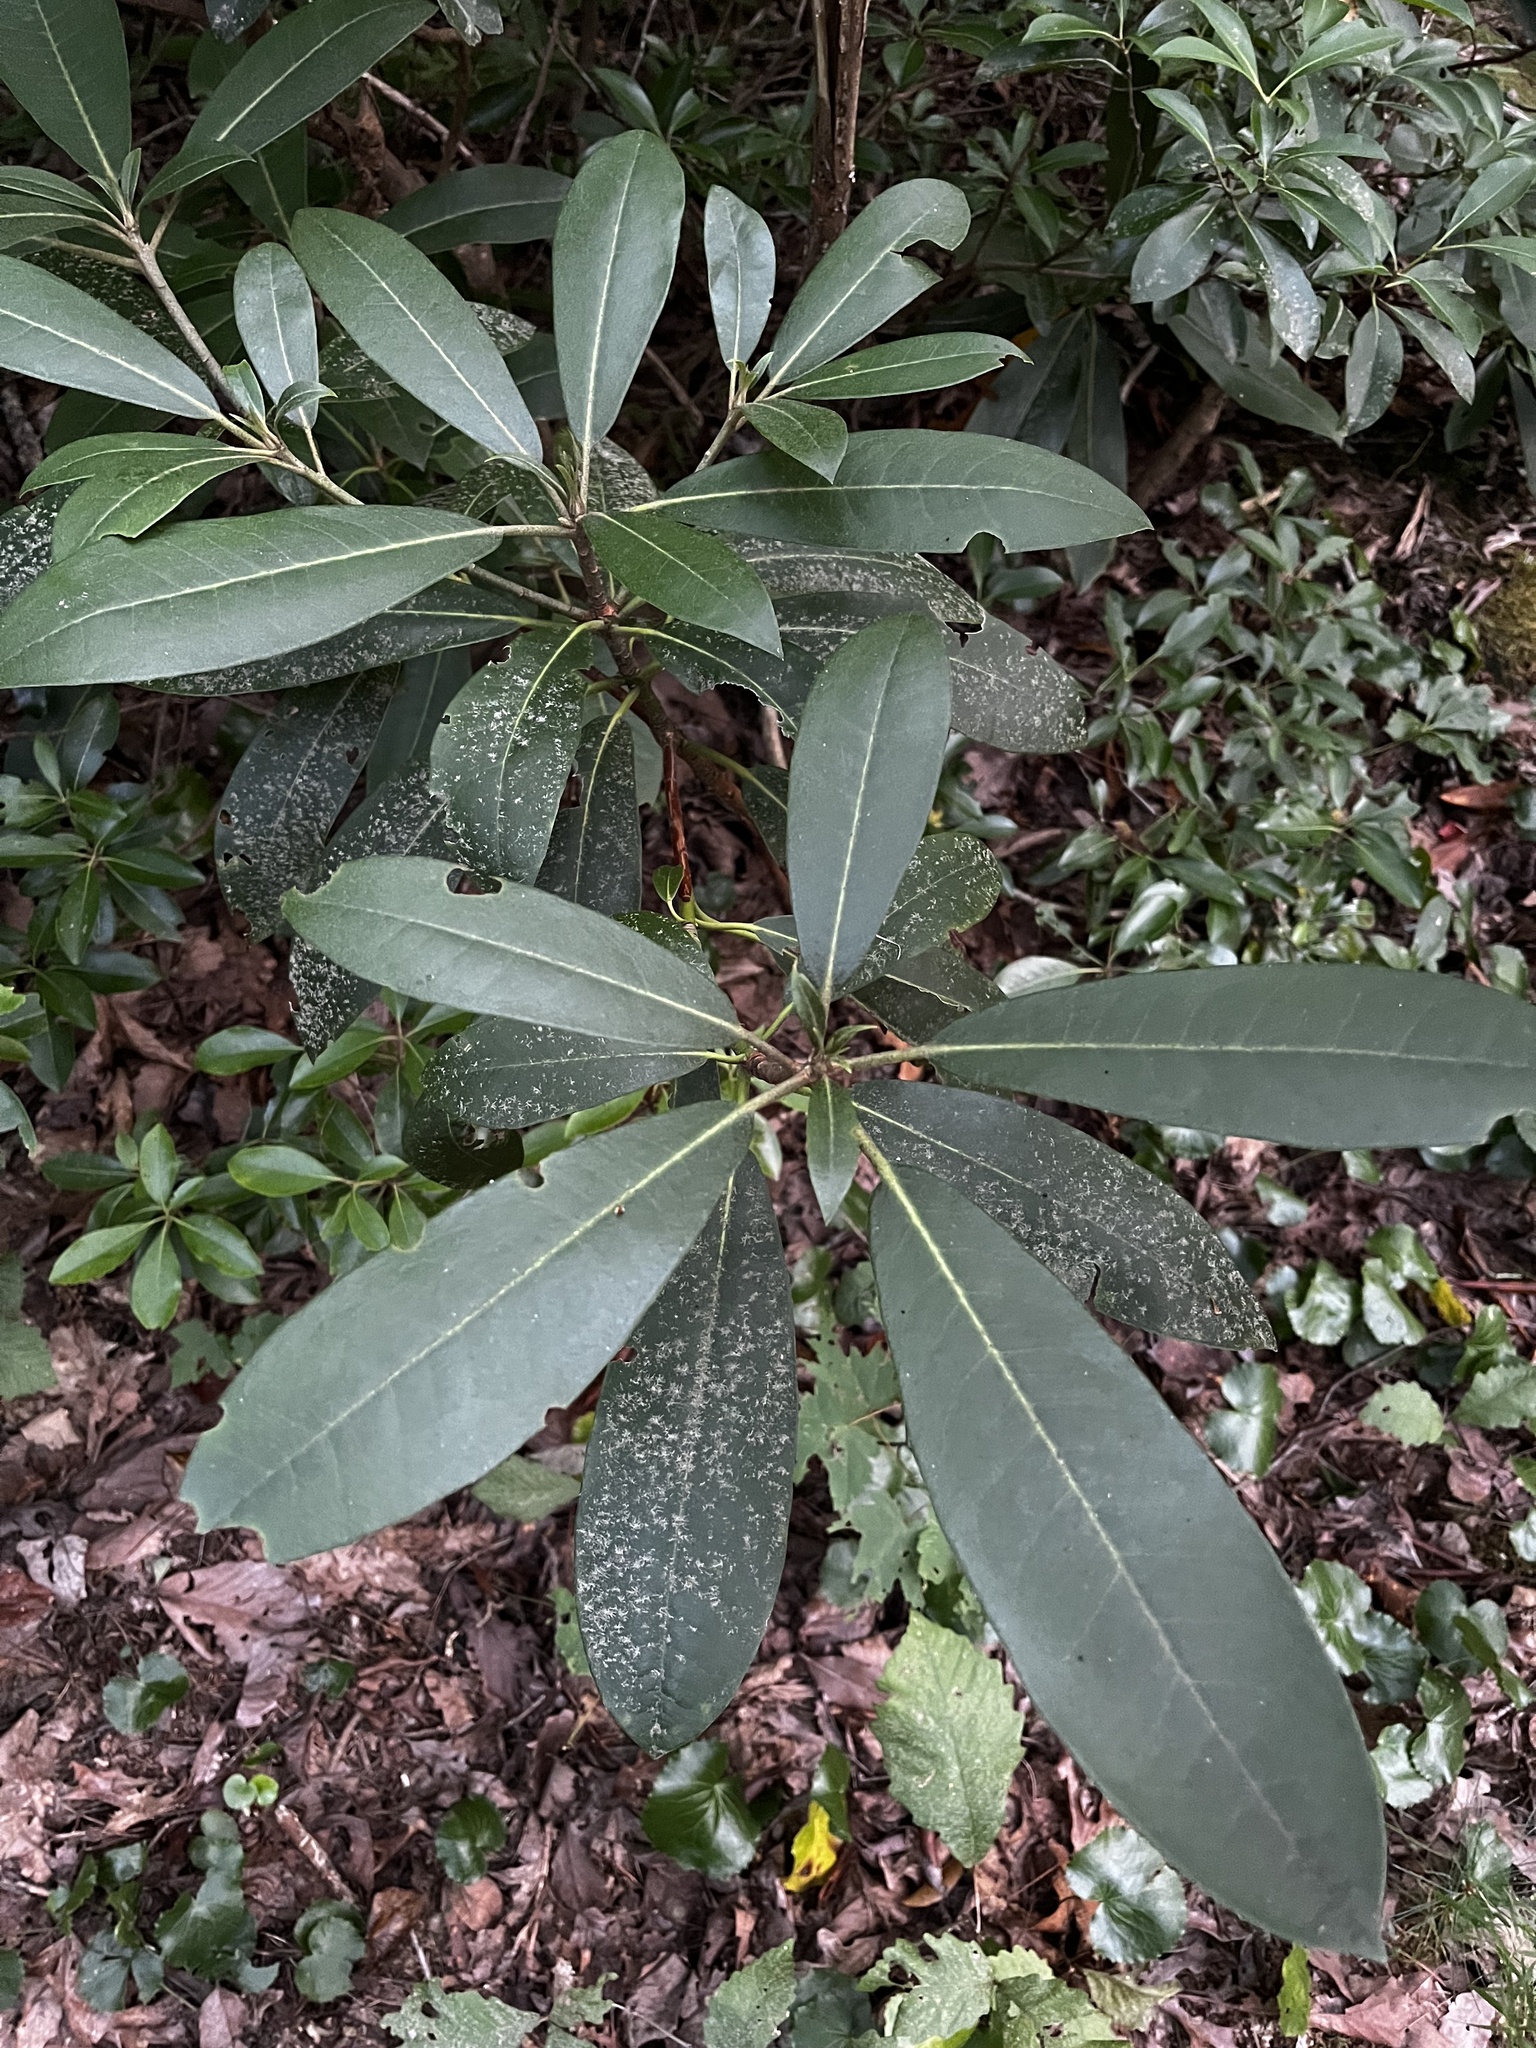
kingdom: Plantae
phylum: Tracheophyta
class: Magnoliopsida
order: Ericales
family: Ericaceae
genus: Rhododendron
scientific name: Rhododendron maximum
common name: Great rhododendron
